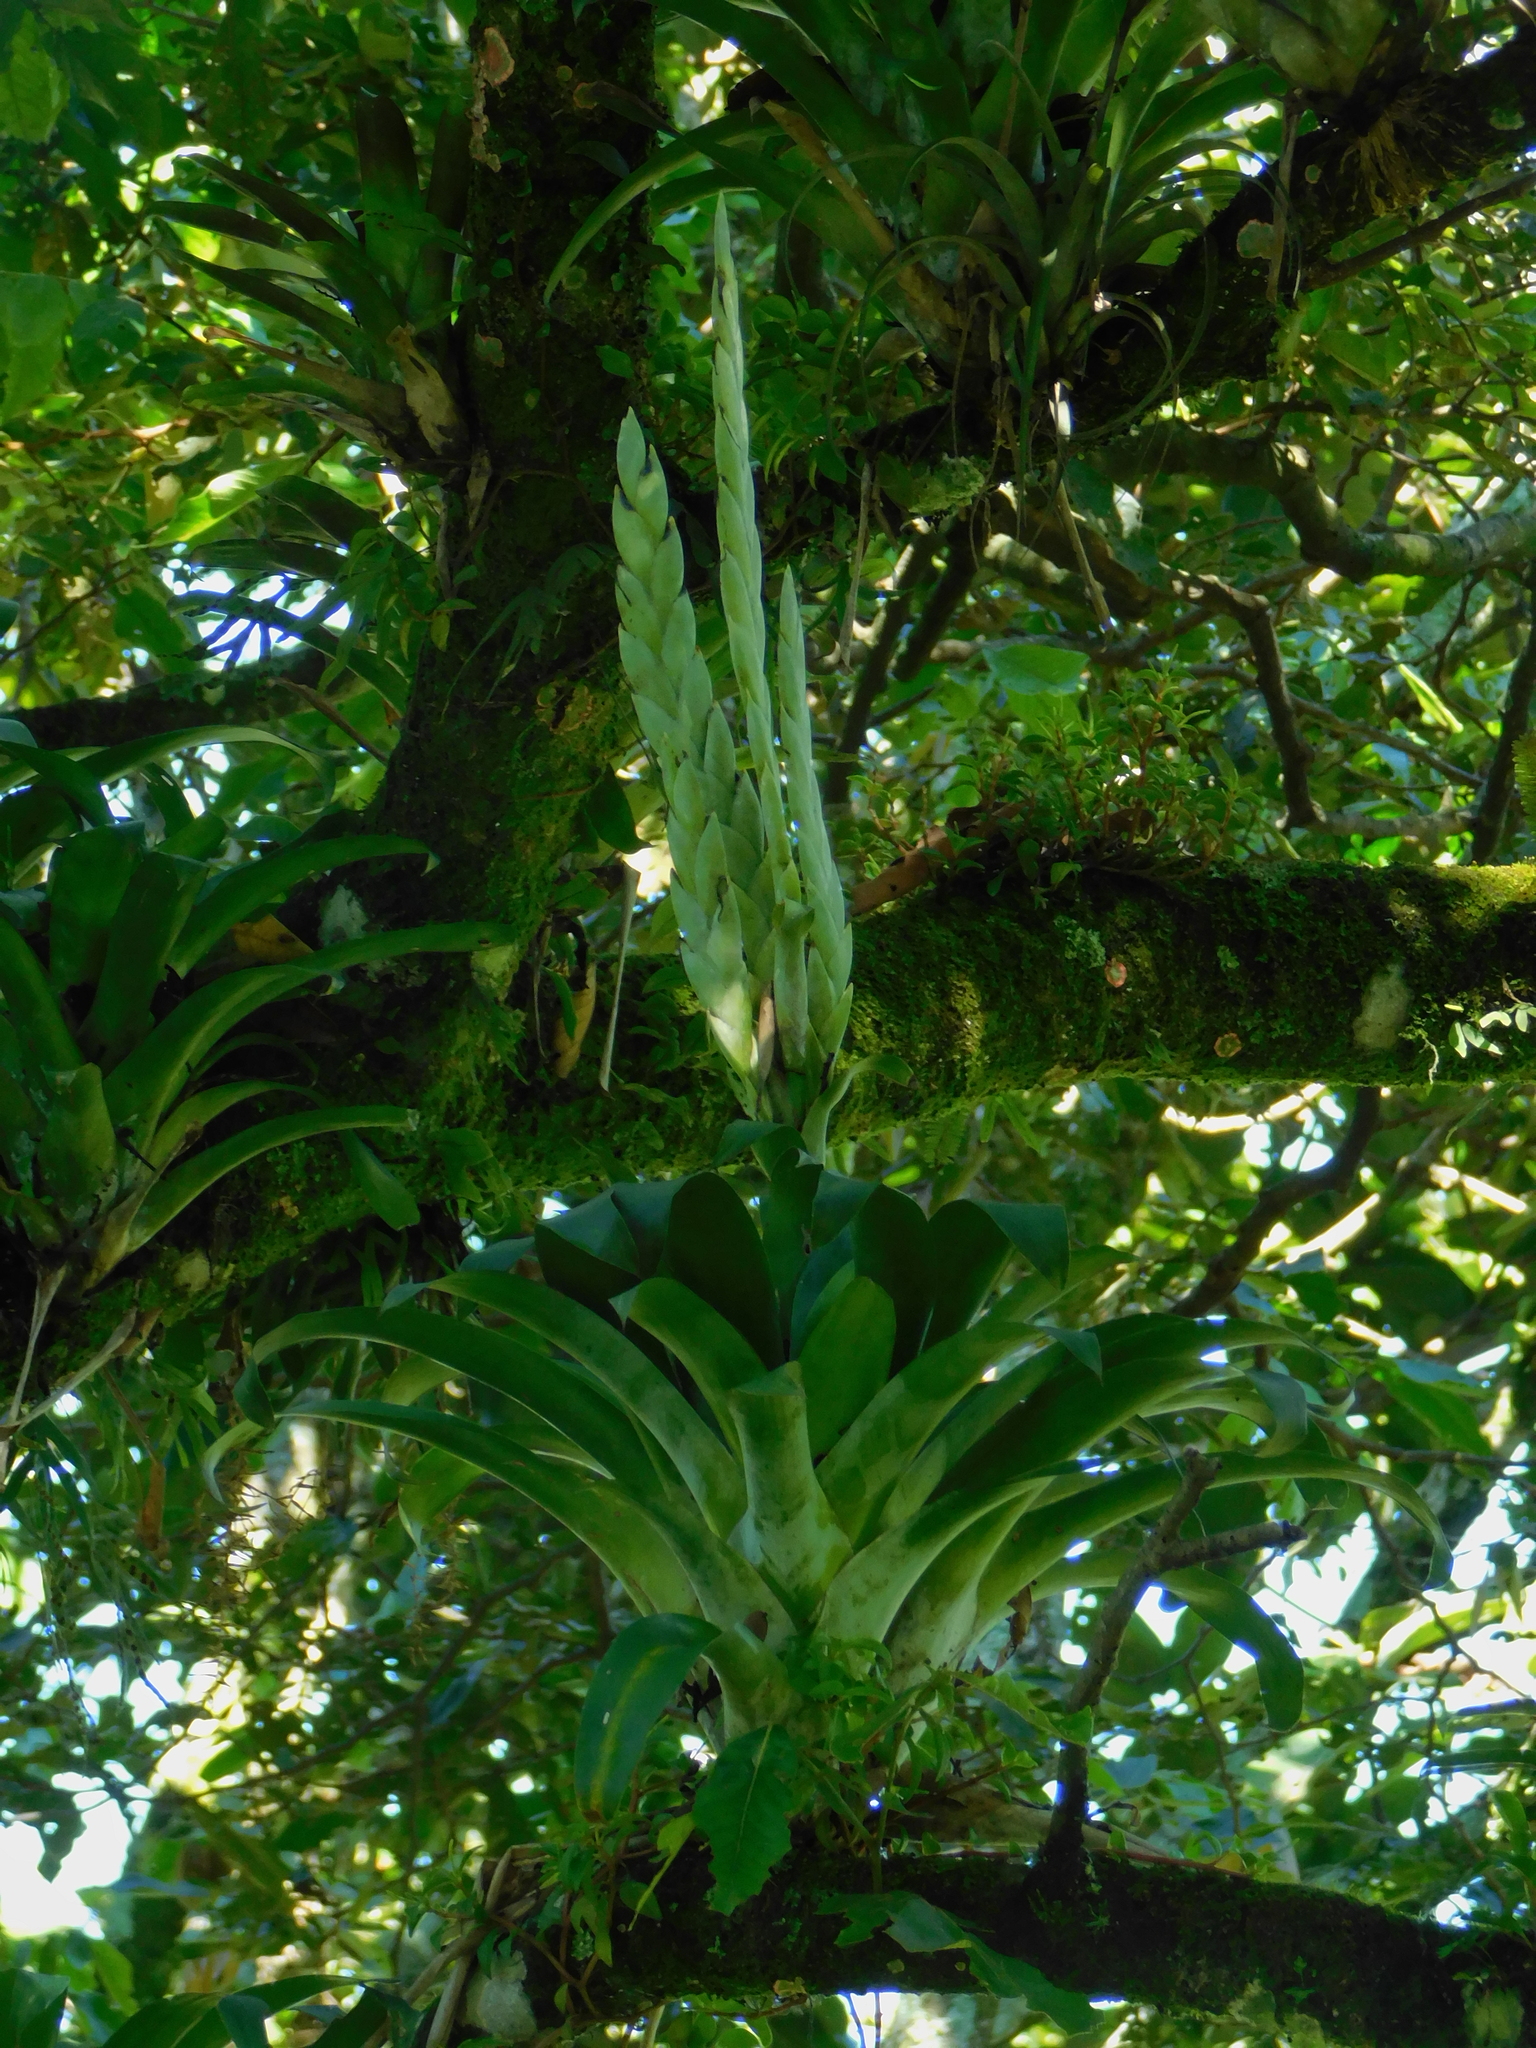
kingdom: Plantae
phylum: Tracheophyta
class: Liliopsida
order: Poales
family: Bromeliaceae
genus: Tillandsia
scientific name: Tillandsia heterophylla
